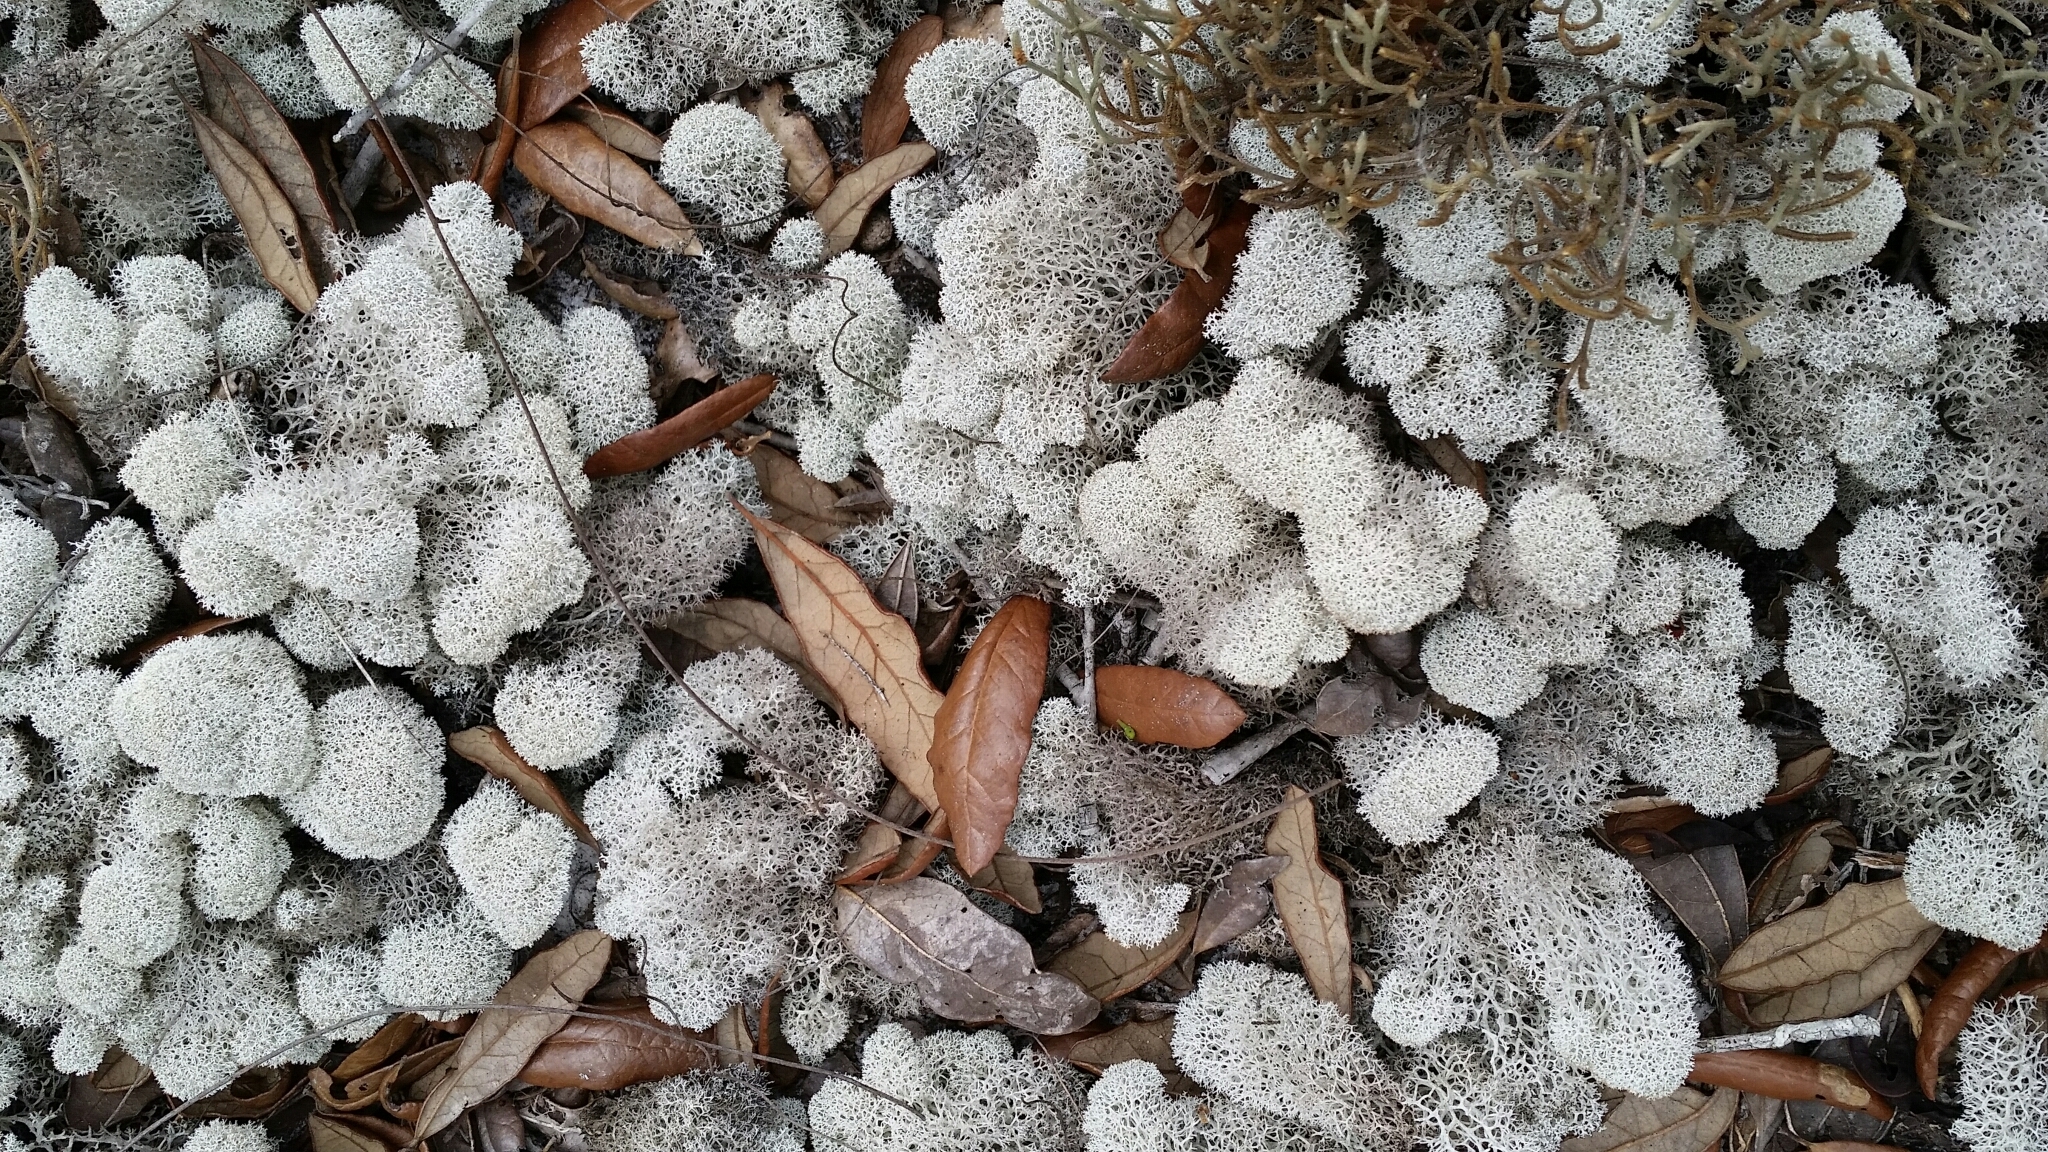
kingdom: Fungi
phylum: Ascomycota
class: Lecanoromycetes
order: Lecanorales
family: Cladoniaceae
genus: Cladonia
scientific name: Cladonia evansii
